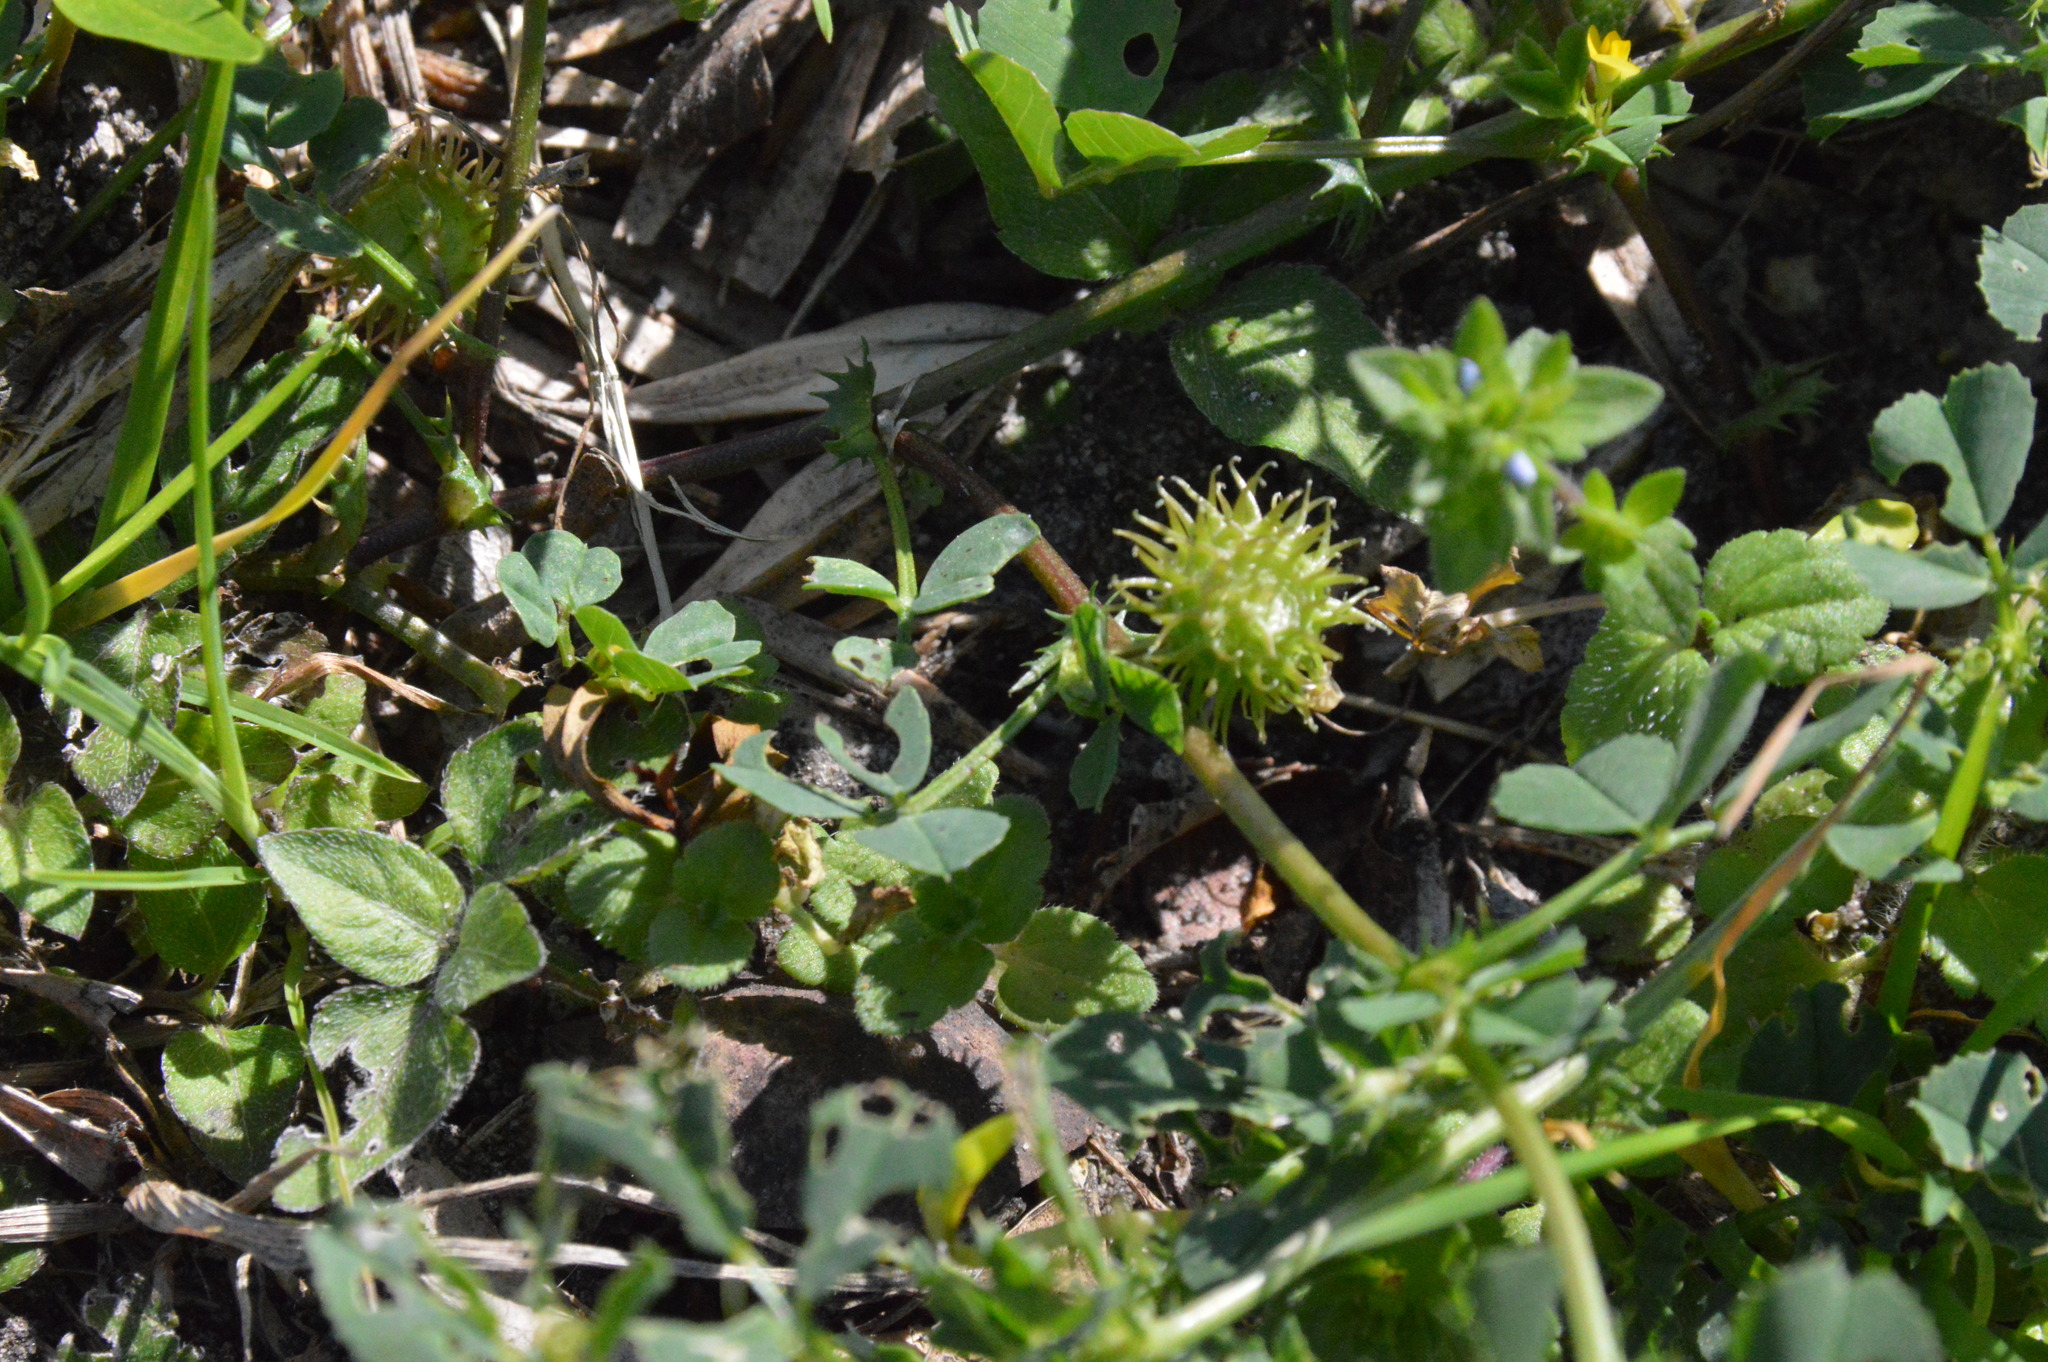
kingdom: Plantae
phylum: Tracheophyta
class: Magnoliopsida
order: Fabales
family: Fabaceae
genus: Medicago
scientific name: Medicago polymorpha
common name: Burclover
